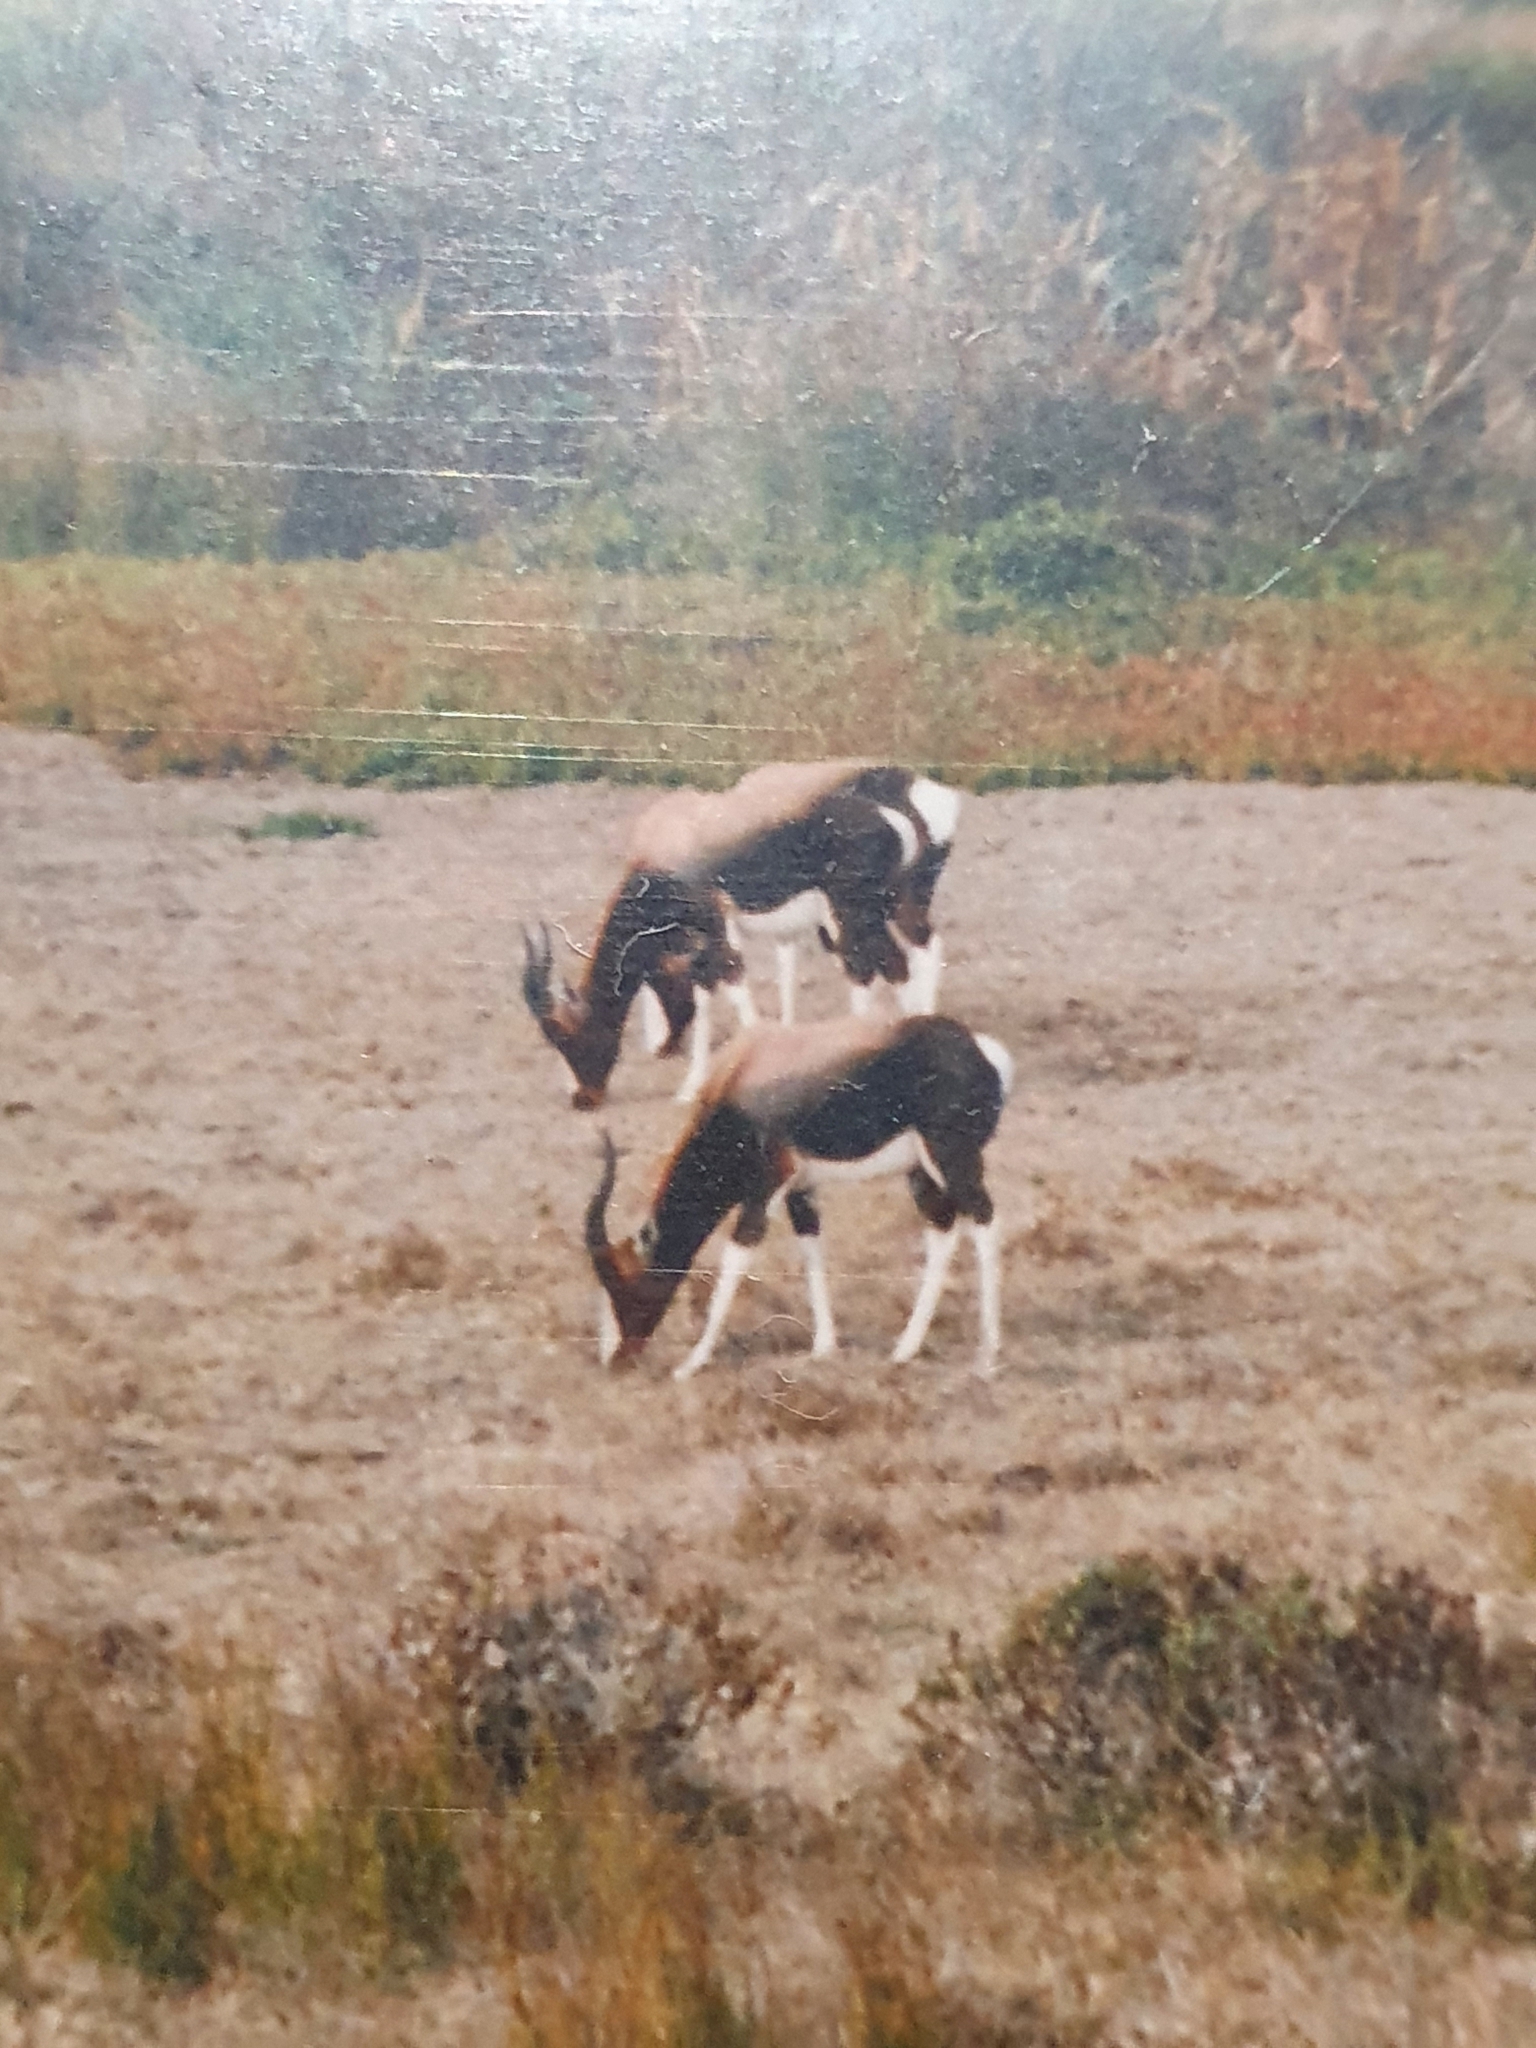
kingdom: Animalia
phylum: Chordata
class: Mammalia
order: Artiodactyla
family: Bovidae
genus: Damaliscus
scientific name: Damaliscus pygargus
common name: Bontebok
